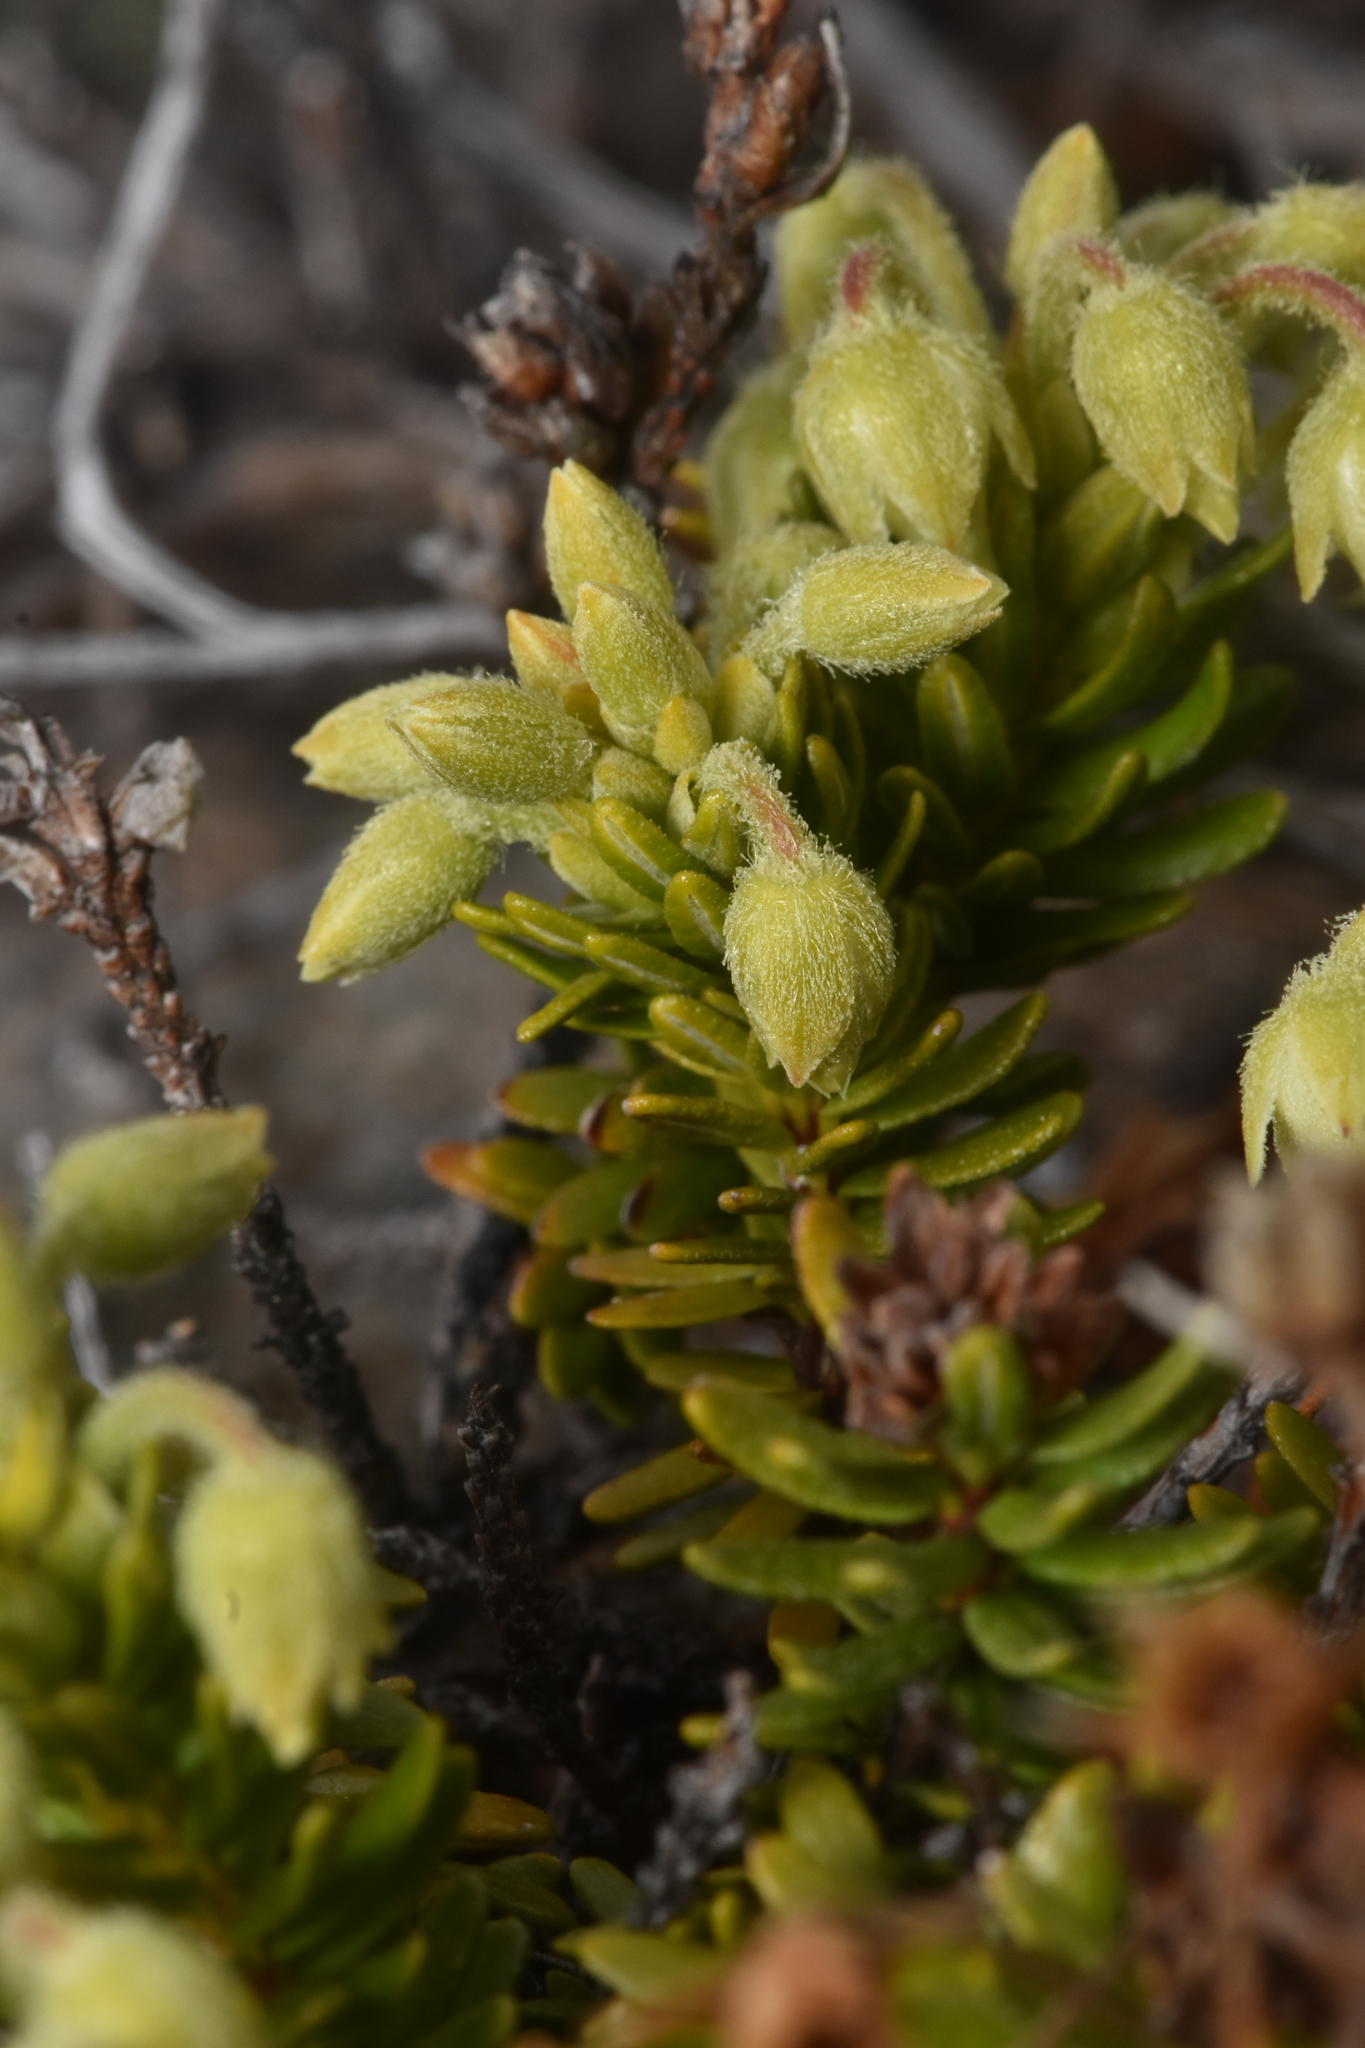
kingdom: Plantae
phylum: Tracheophyta
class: Magnoliopsida
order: Ericales
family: Ericaceae
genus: Phyllodoce
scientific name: Phyllodoce glanduliflora
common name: Cream mountain heather
